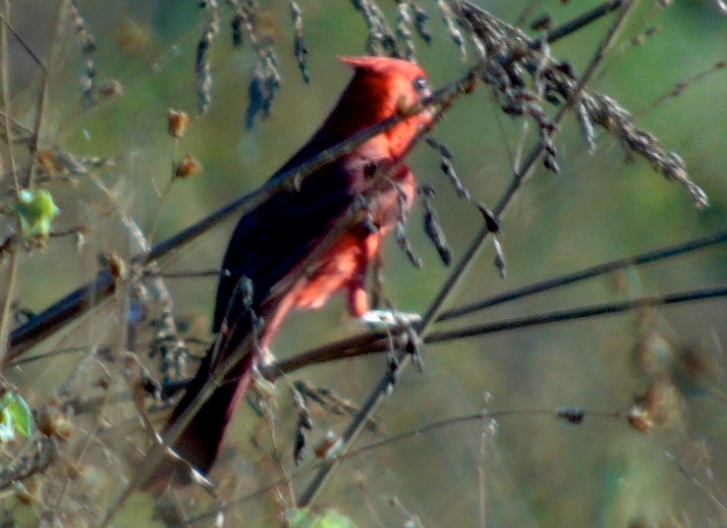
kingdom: Animalia
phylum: Chordata
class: Aves
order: Passeriformes
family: Cardinalidae
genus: Cardinalis
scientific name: Cardinalis cardinalis
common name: Northern cardinal
